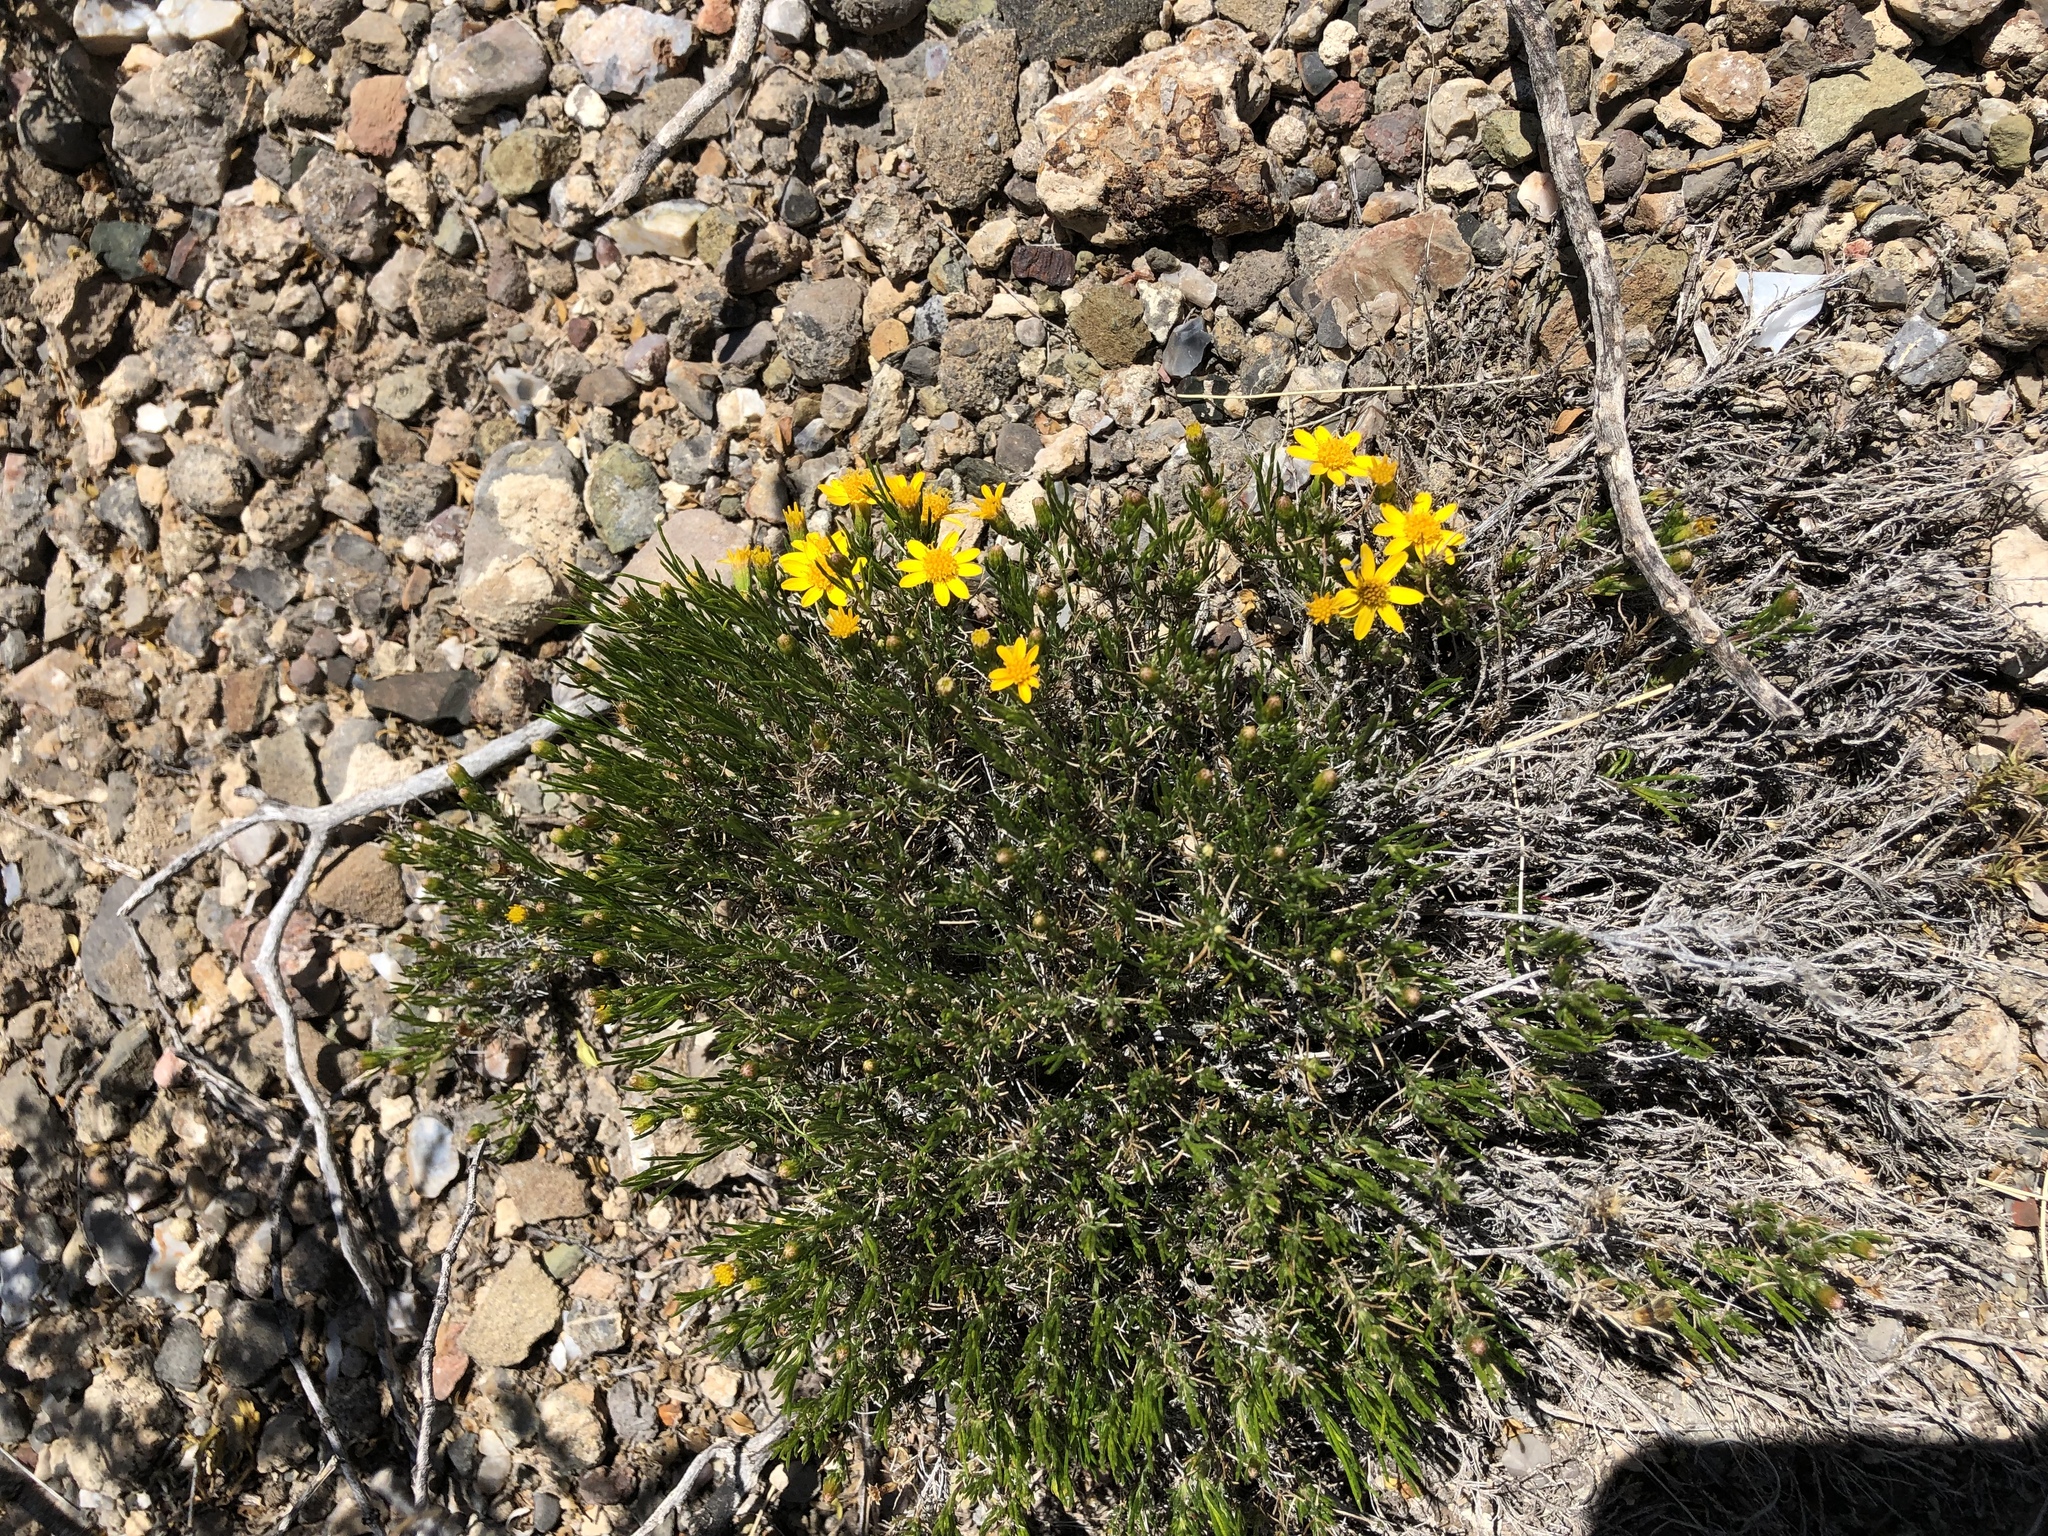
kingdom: Plantae
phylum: Tracheophyta
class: Magnoliopsida
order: Asterales
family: Asteraceae
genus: Thymophylla
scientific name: Thymophylla acerosa
